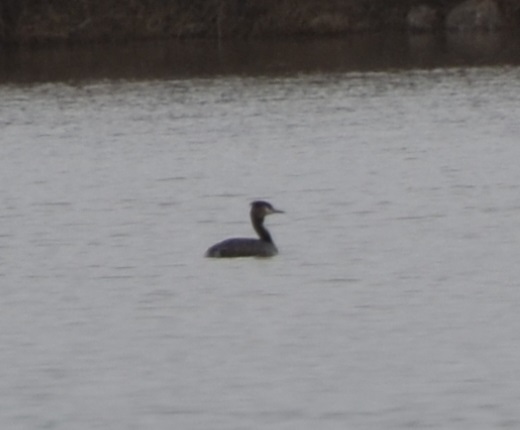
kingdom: Animalia
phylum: Chordata
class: Aves
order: Podicipediformes
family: Podicipedidae
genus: Podiceps
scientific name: Podiceps cristatus
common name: Great crested grebe
